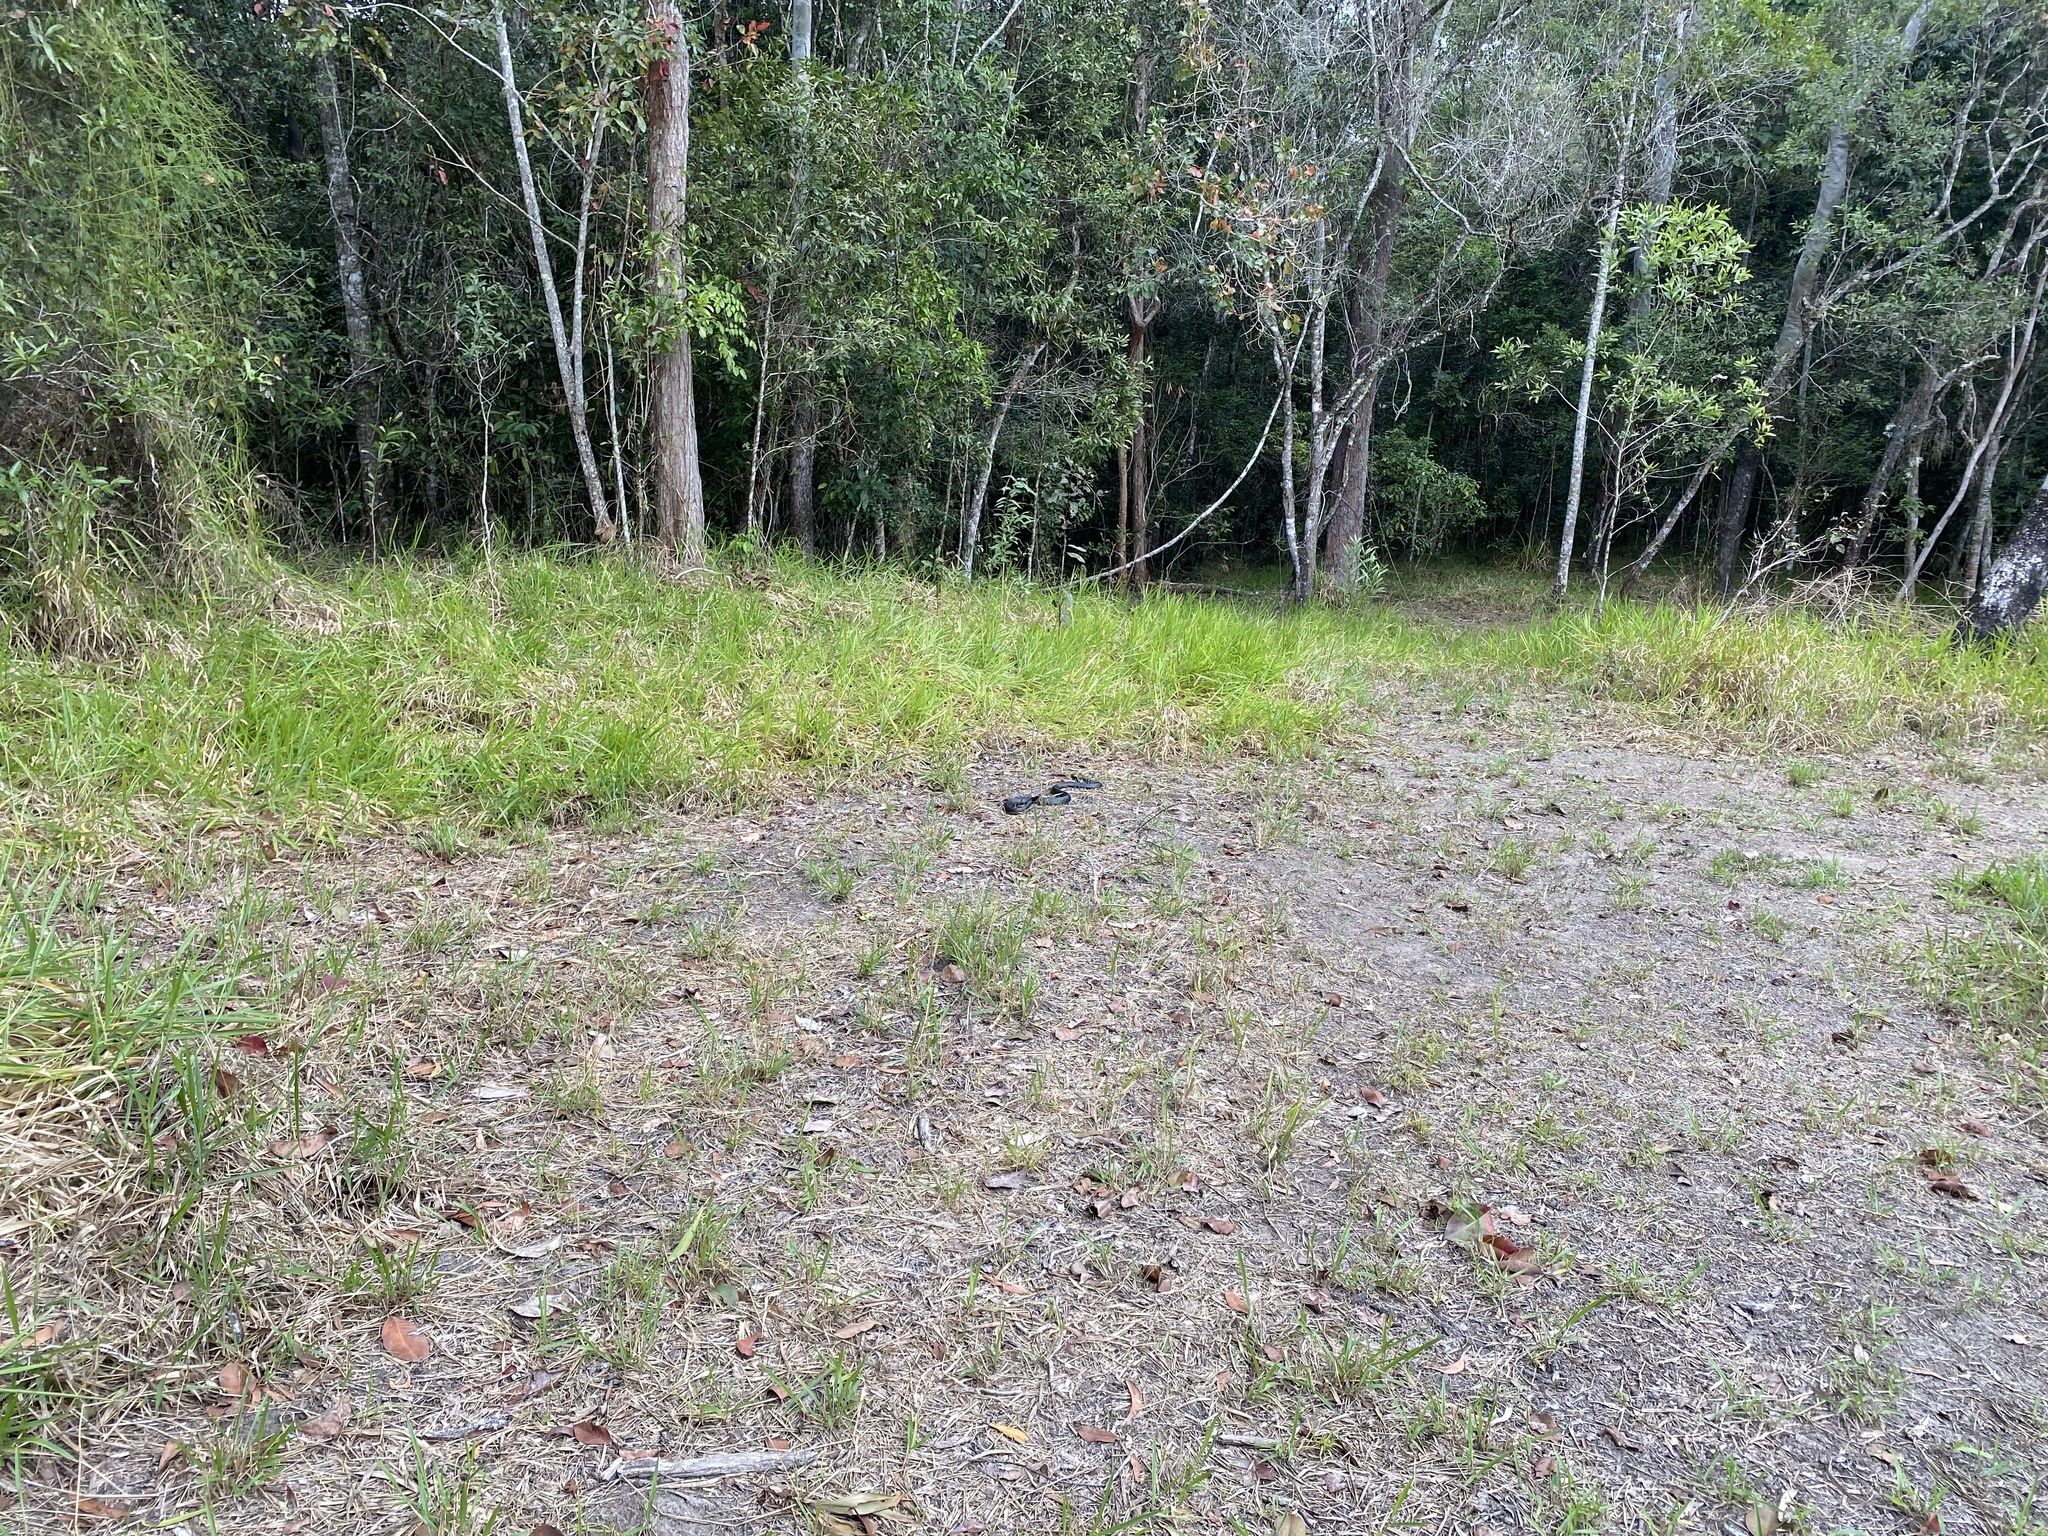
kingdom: Animalia
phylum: Chordata
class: Squamata
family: Elapidae
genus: Pseudechis
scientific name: Pseudechis porphyriacus
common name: Australian black snake
